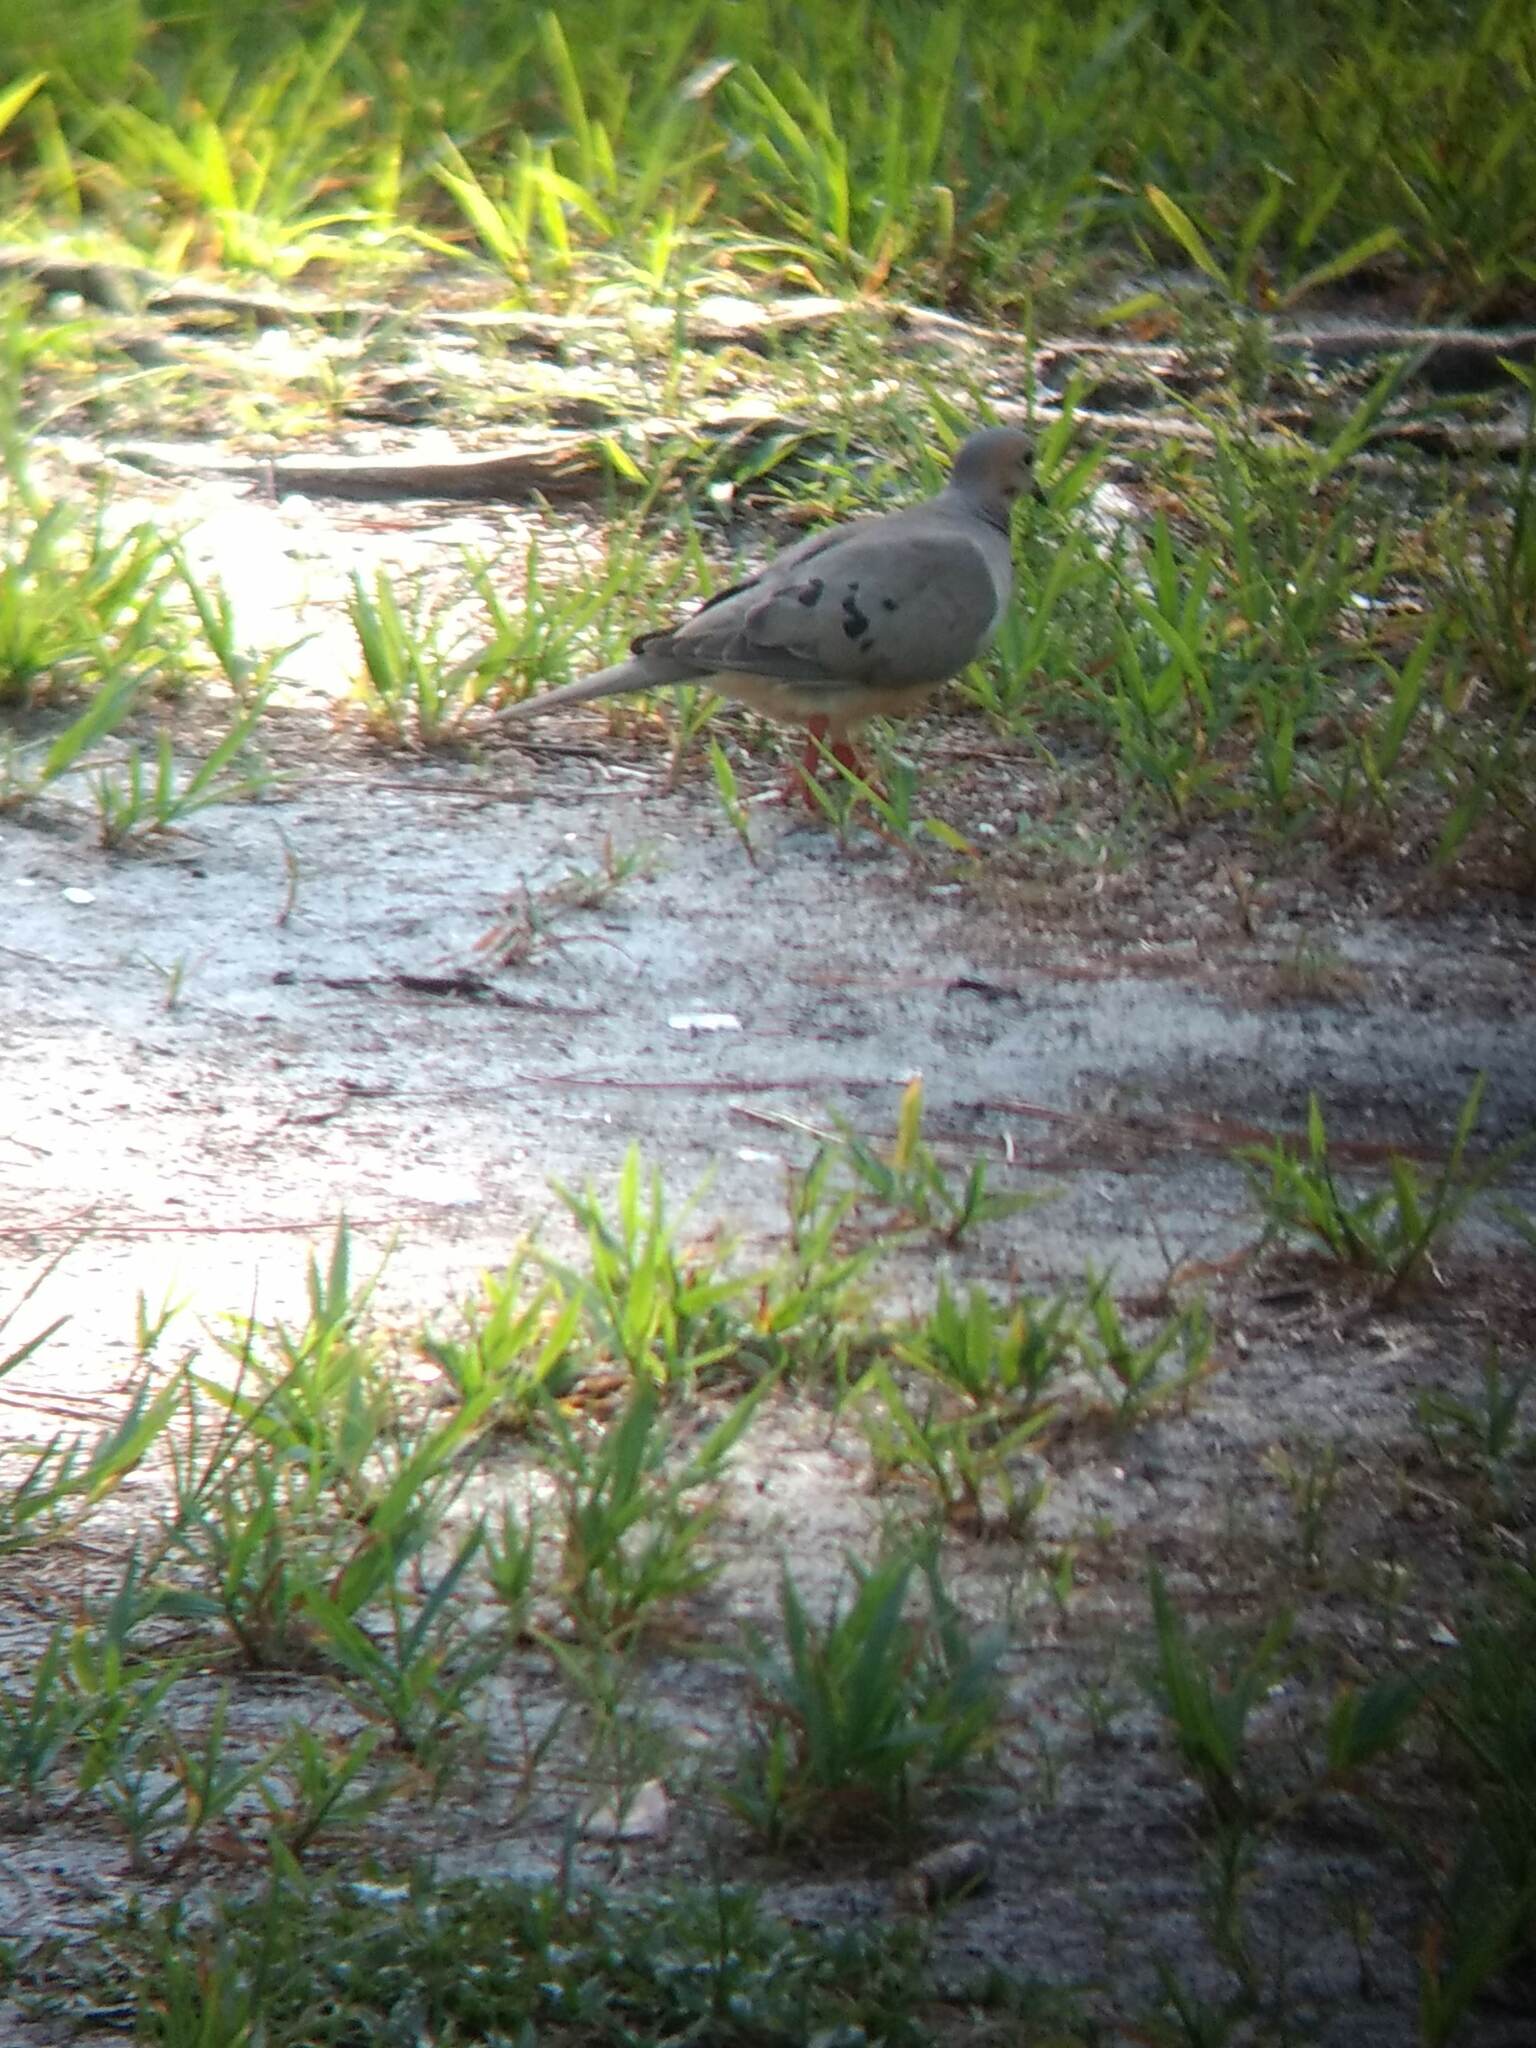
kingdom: Animalia
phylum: Chordata
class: Aves
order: Columbiformes
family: Columbidae
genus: Zenaida
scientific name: Zenaida macroura
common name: Mourning dove
